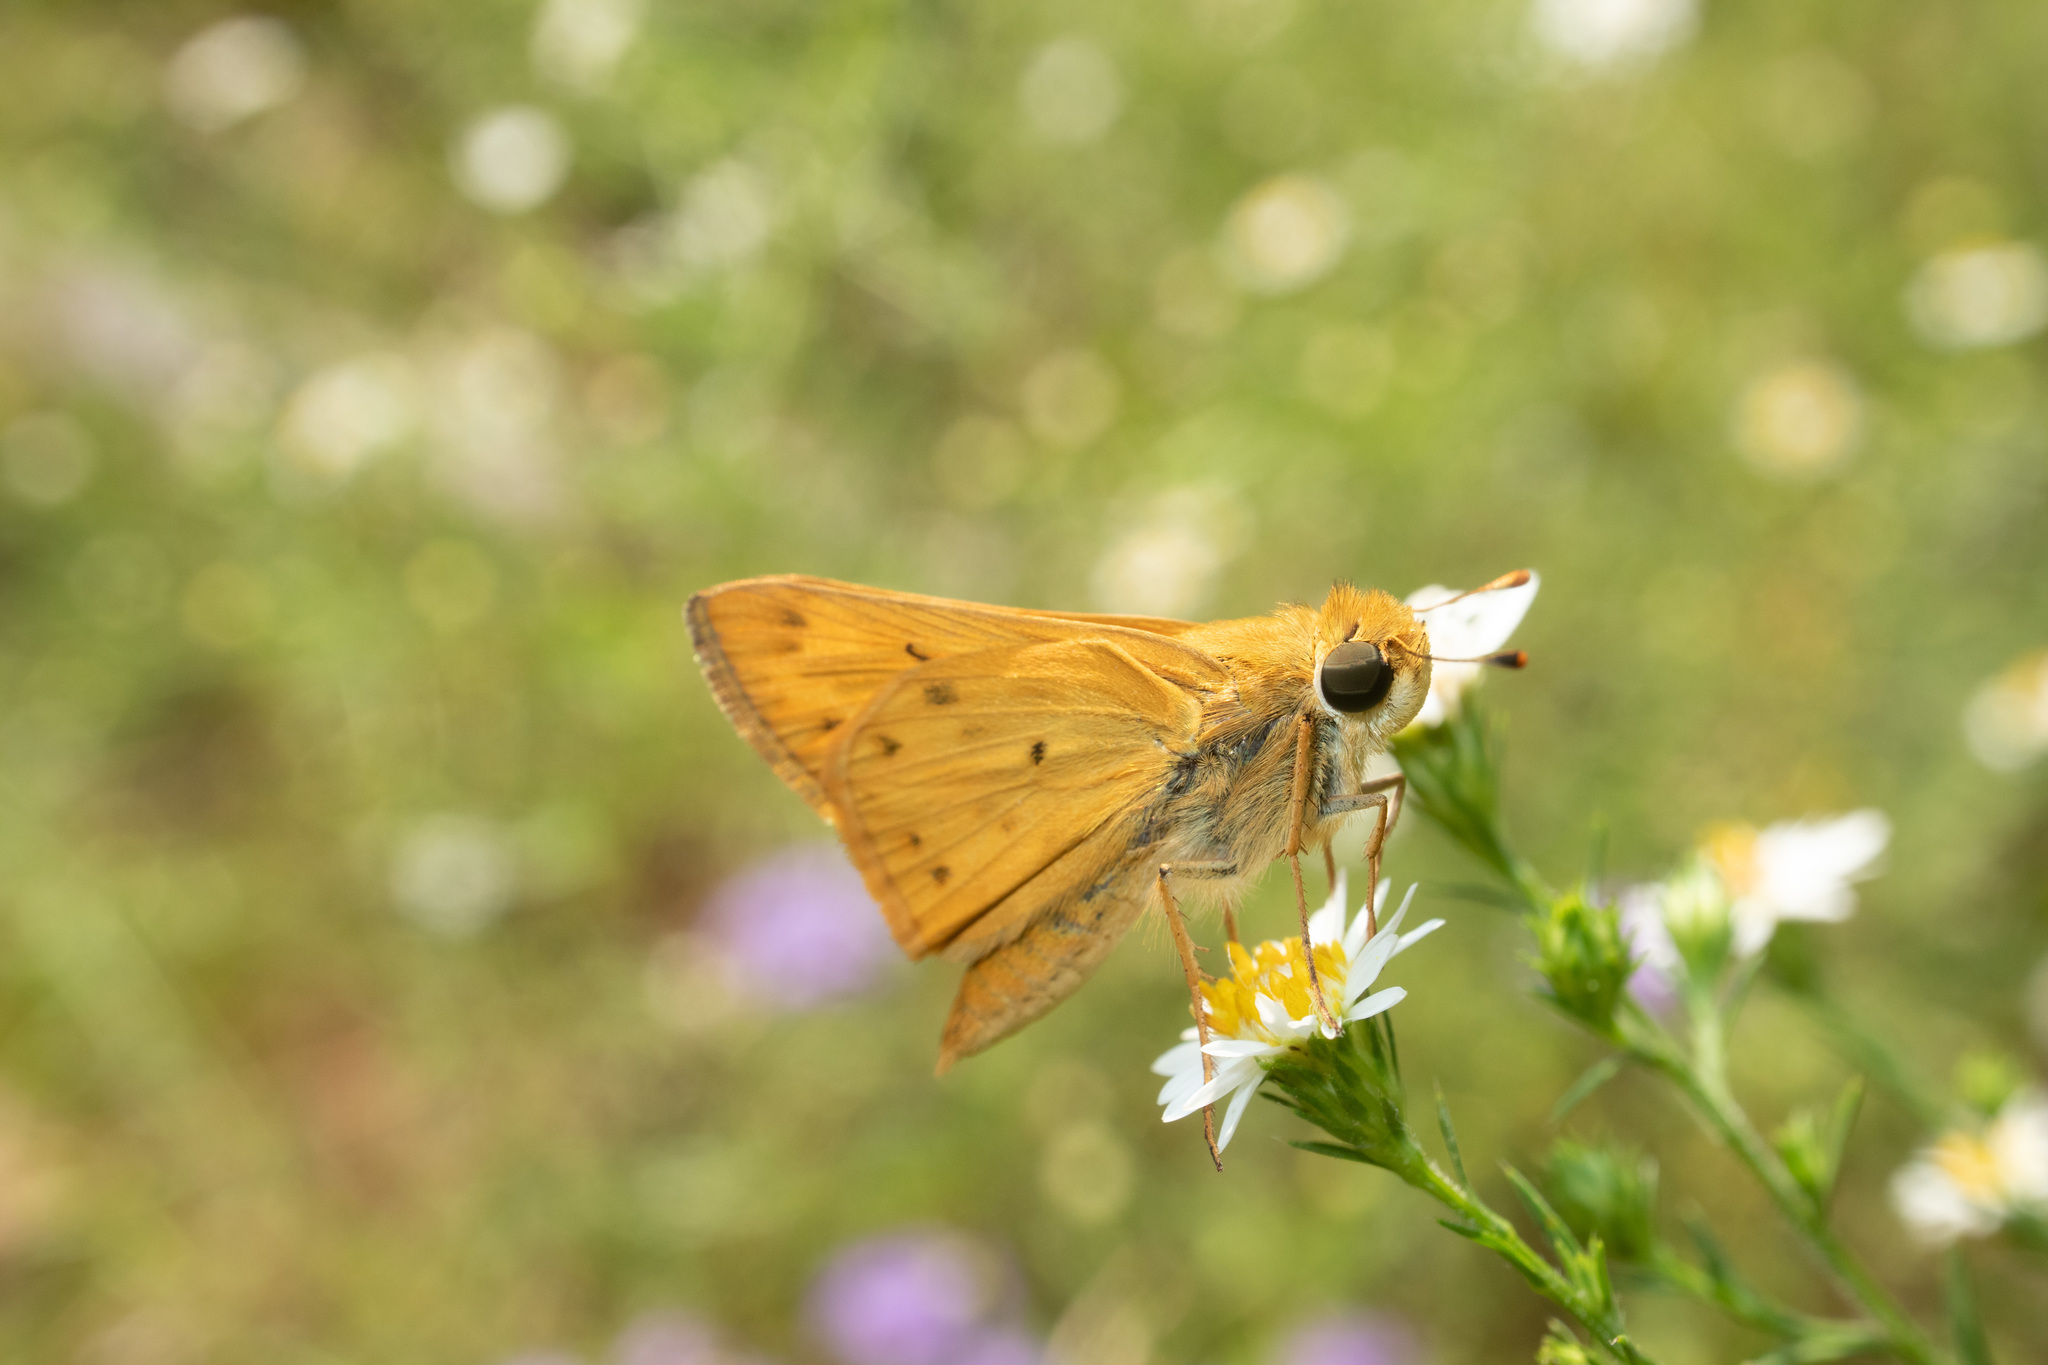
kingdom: Animalia
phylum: Arthropoda
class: Insecta
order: Lepidoptera
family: Hesperiidae
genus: Hylephila
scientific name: Hylephila phyleus
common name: Fiery skipper
